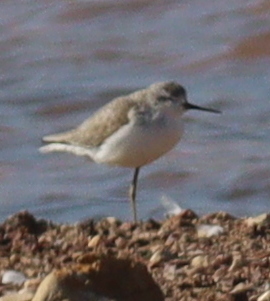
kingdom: Animalia
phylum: Chordata
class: Aves
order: Charadriiformes
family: Scolopacidae
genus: Tringa
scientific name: Tringa stagnatilis
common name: Marsh sandpiper
